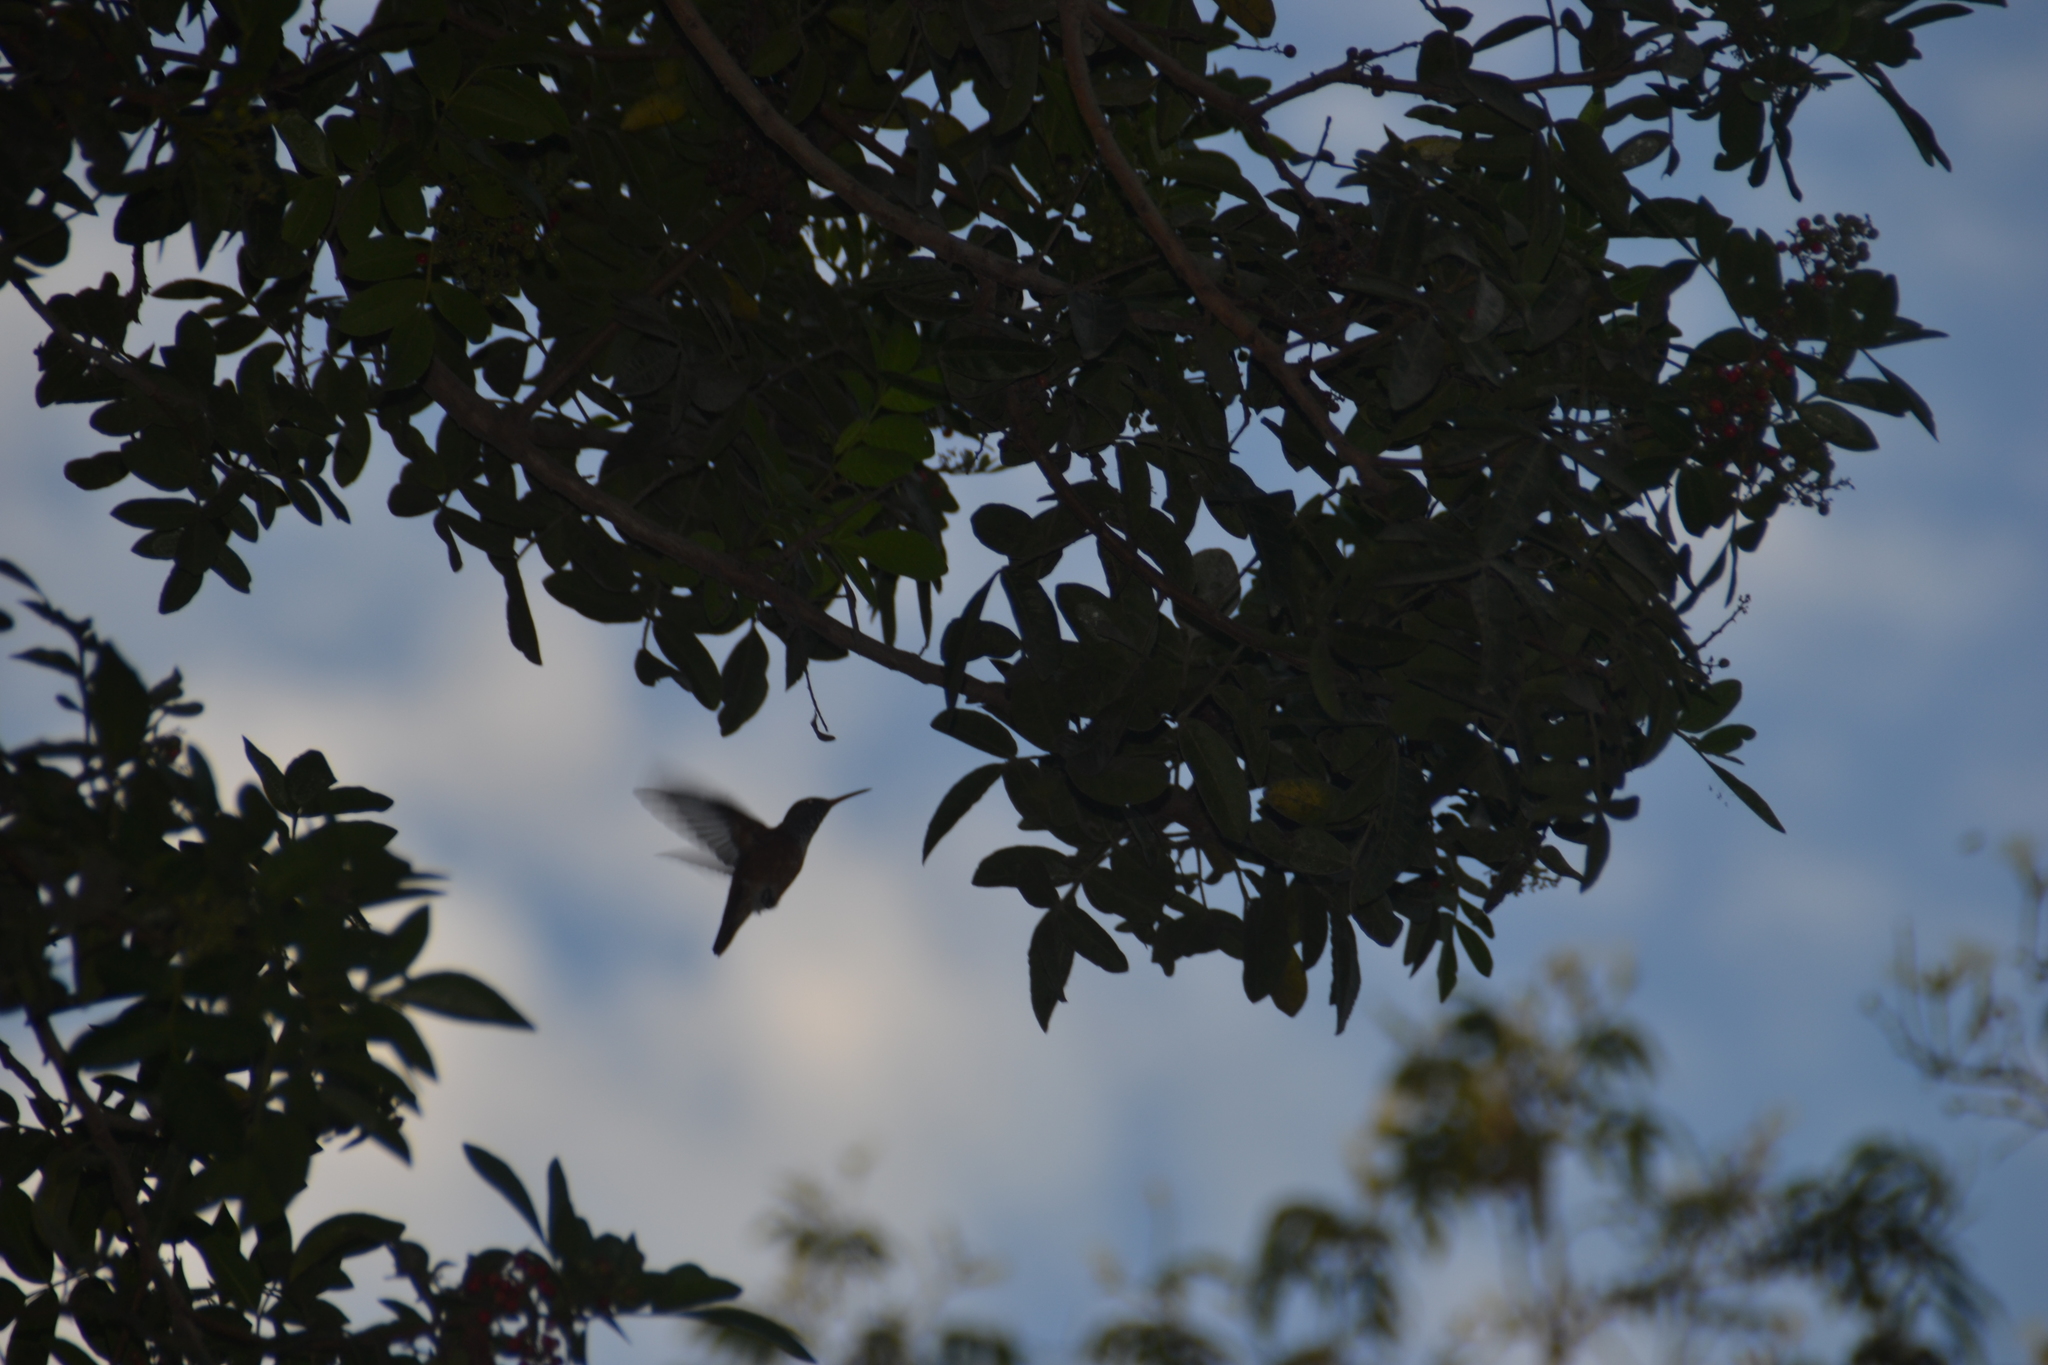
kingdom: Animalia
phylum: Chordata
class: Aves
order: Apodiformes
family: Trochilidae
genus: Amazilis
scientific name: Amazilis amazilia
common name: Amazilia hummingbird
